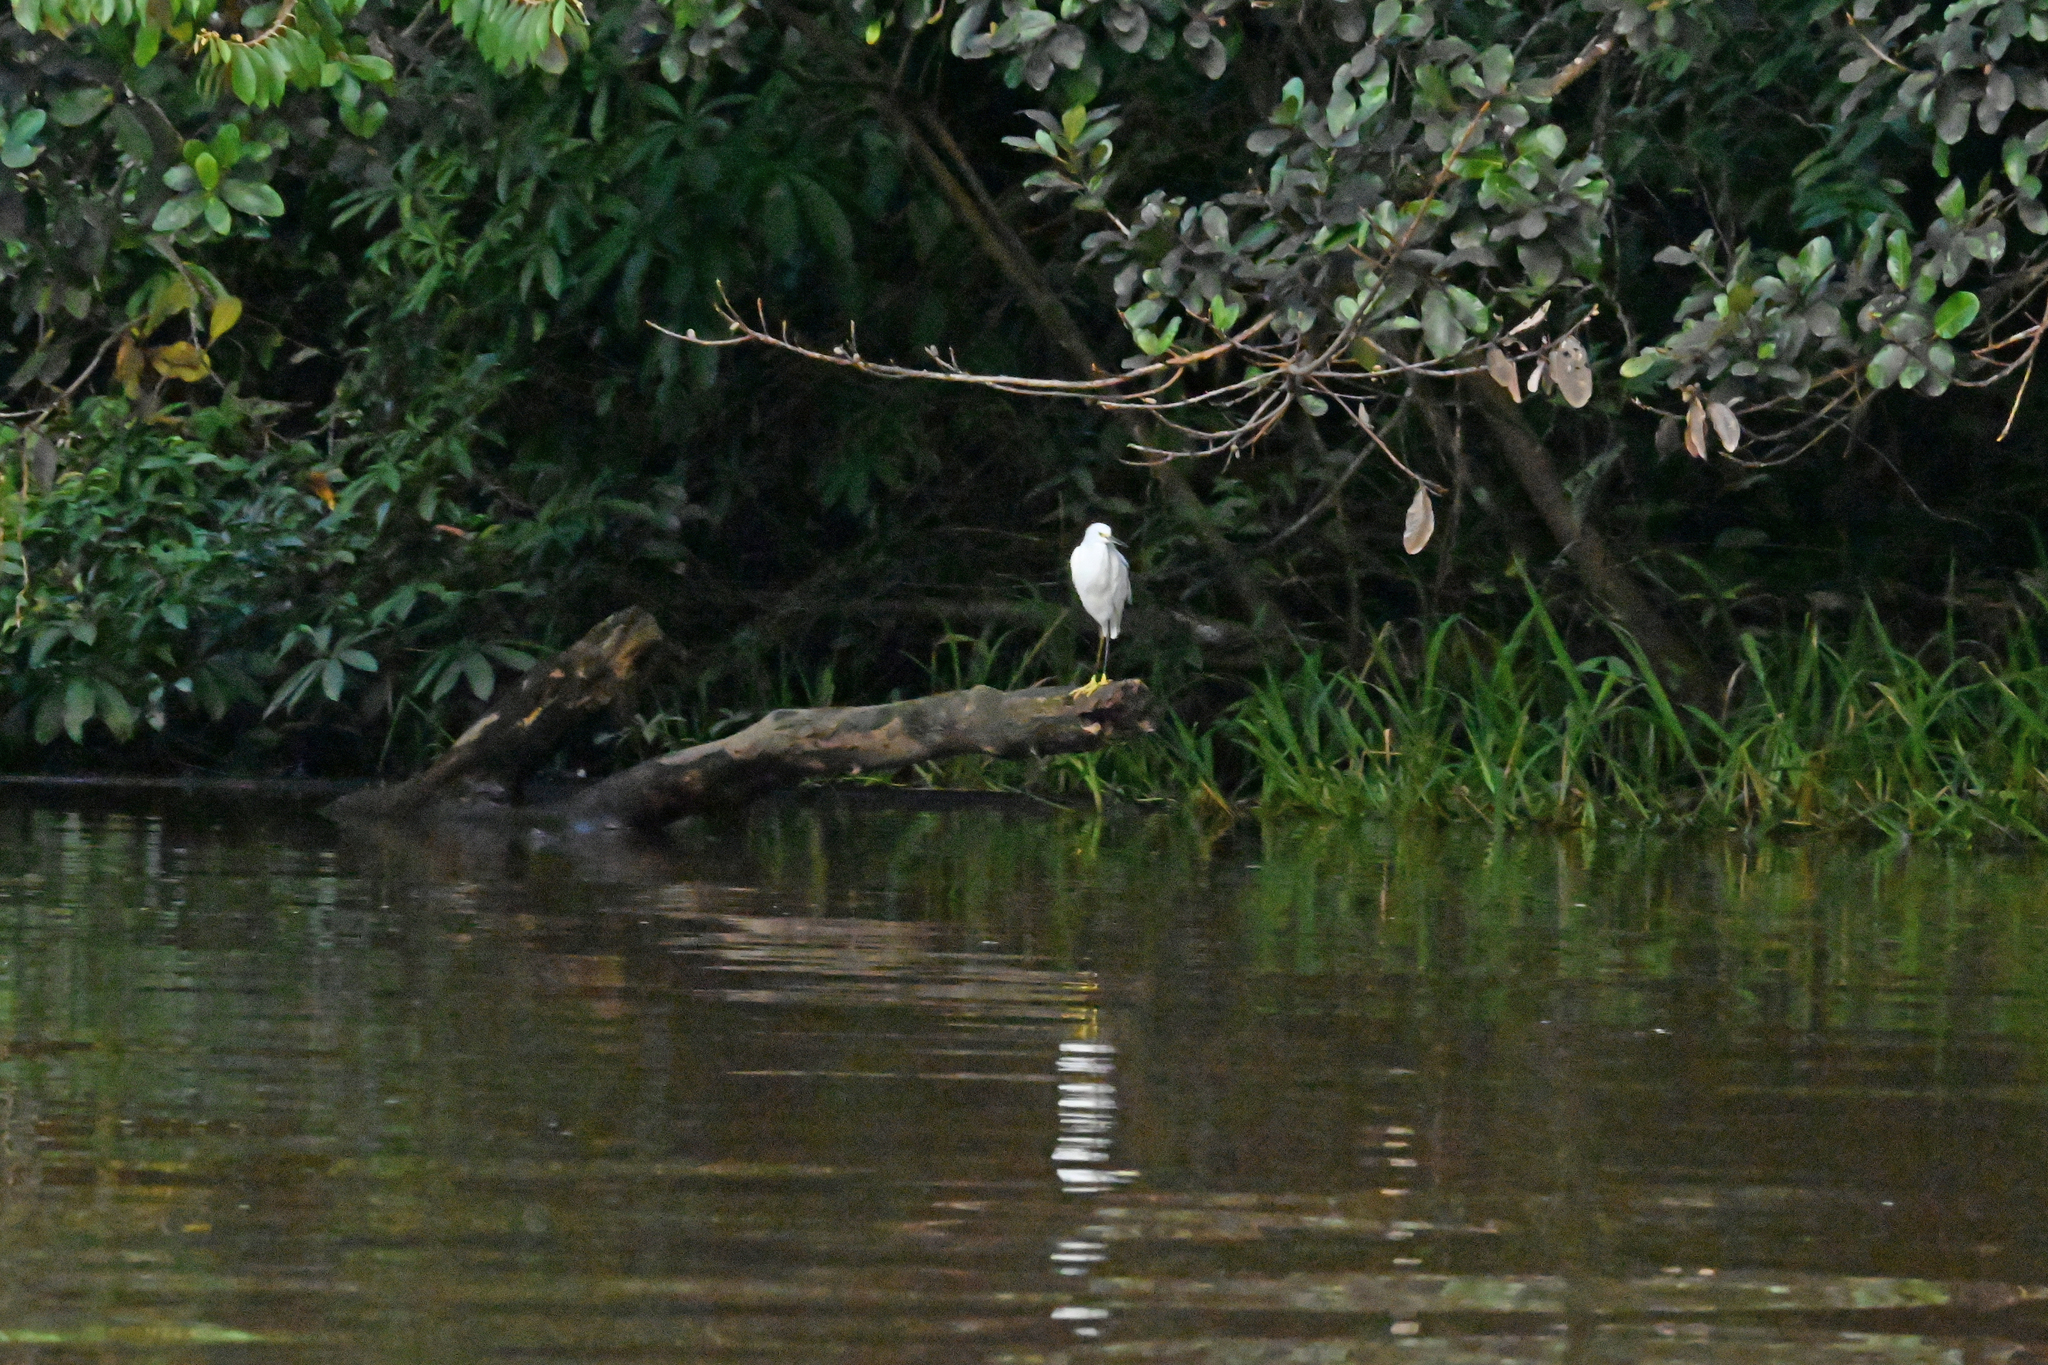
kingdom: Animalia
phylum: Chordata
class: Aves
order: Pelecaniformes
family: Ardeidae
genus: Egretta
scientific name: Egretta thula
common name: Snowy egret
